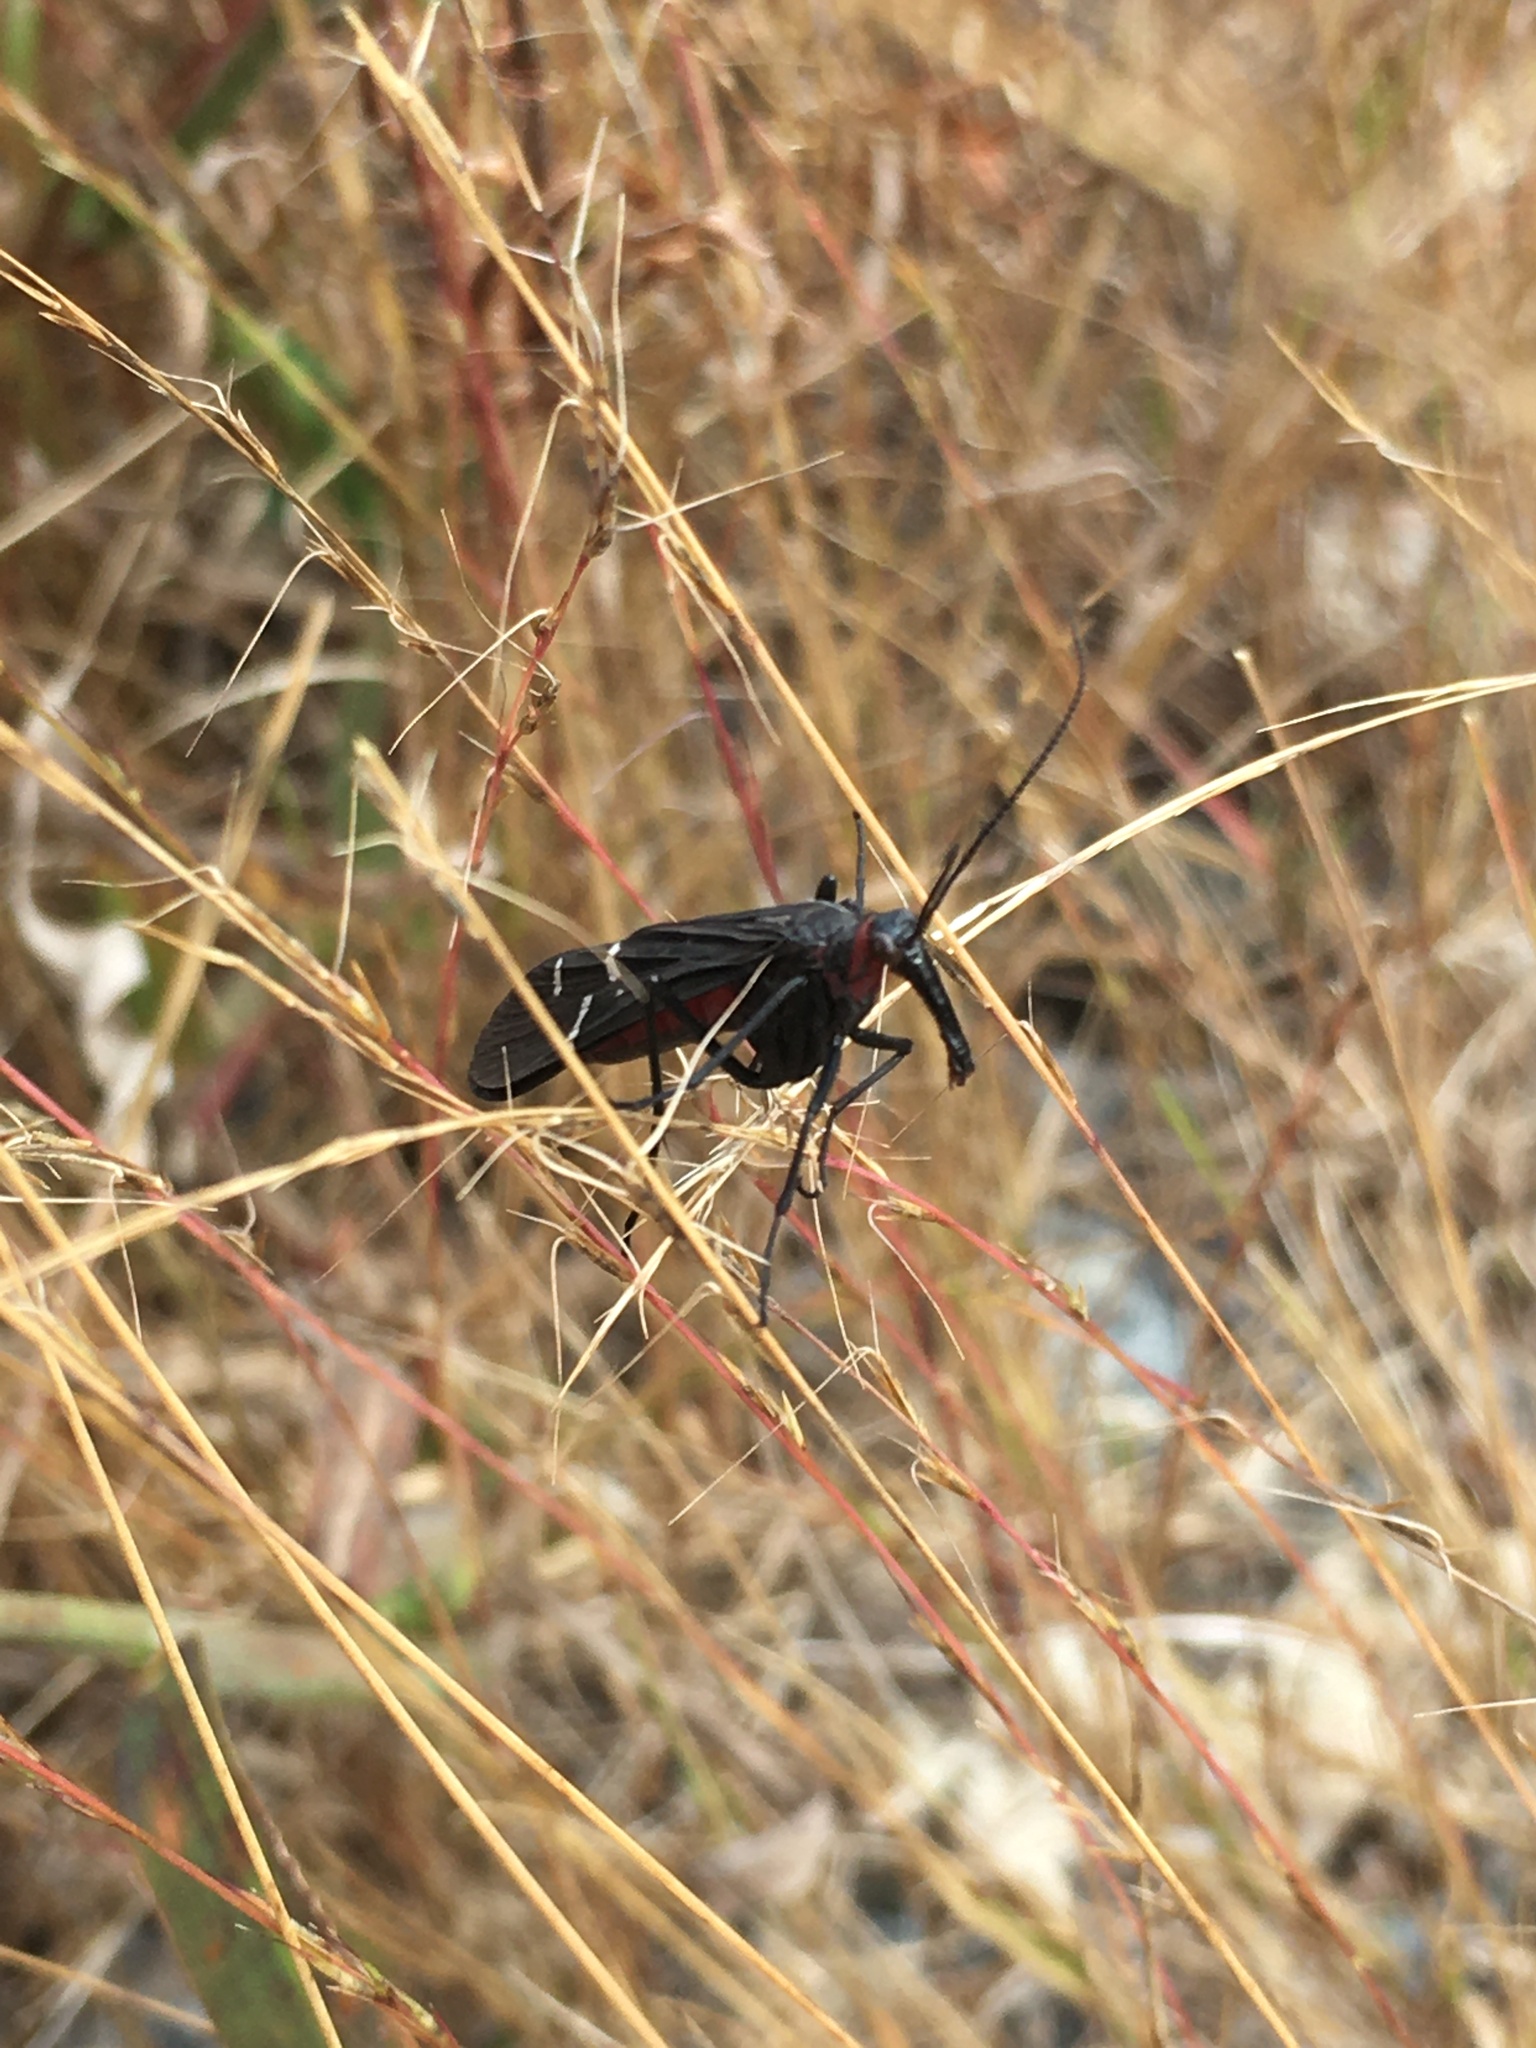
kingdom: Animalia
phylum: Arthropoda
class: Insecta
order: Mecoptera
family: Panorpidae
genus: Panorpa
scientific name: Panorpa lugubris
